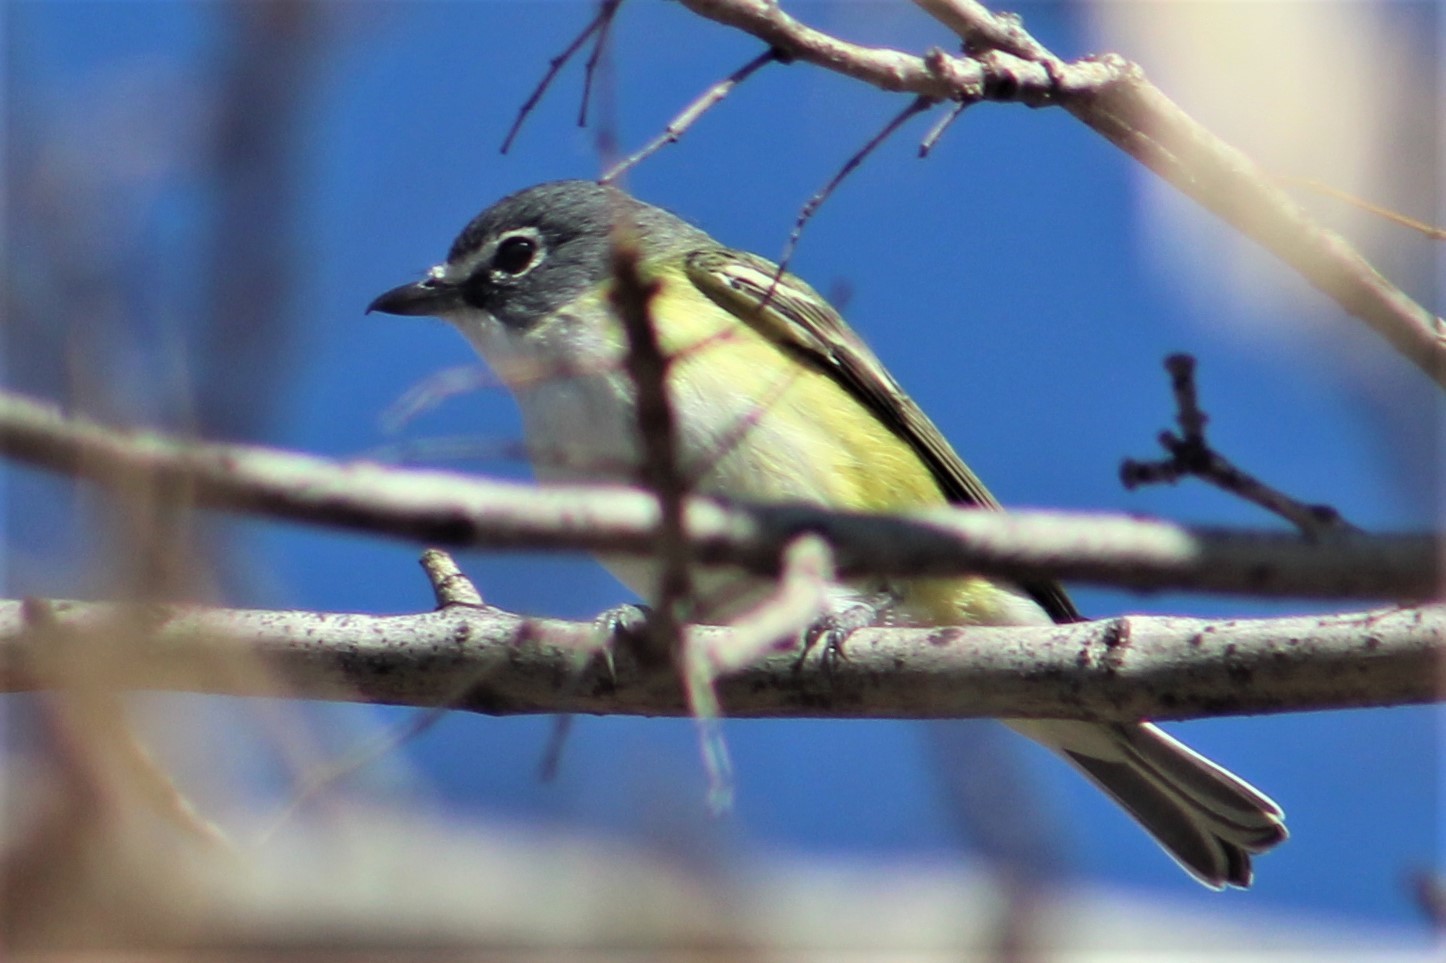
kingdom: Animalia
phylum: Chordata
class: Aves
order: Passeriformes
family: Vireonidae
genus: Vireo
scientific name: Vireo solitarius
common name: Blue-headed vireo
